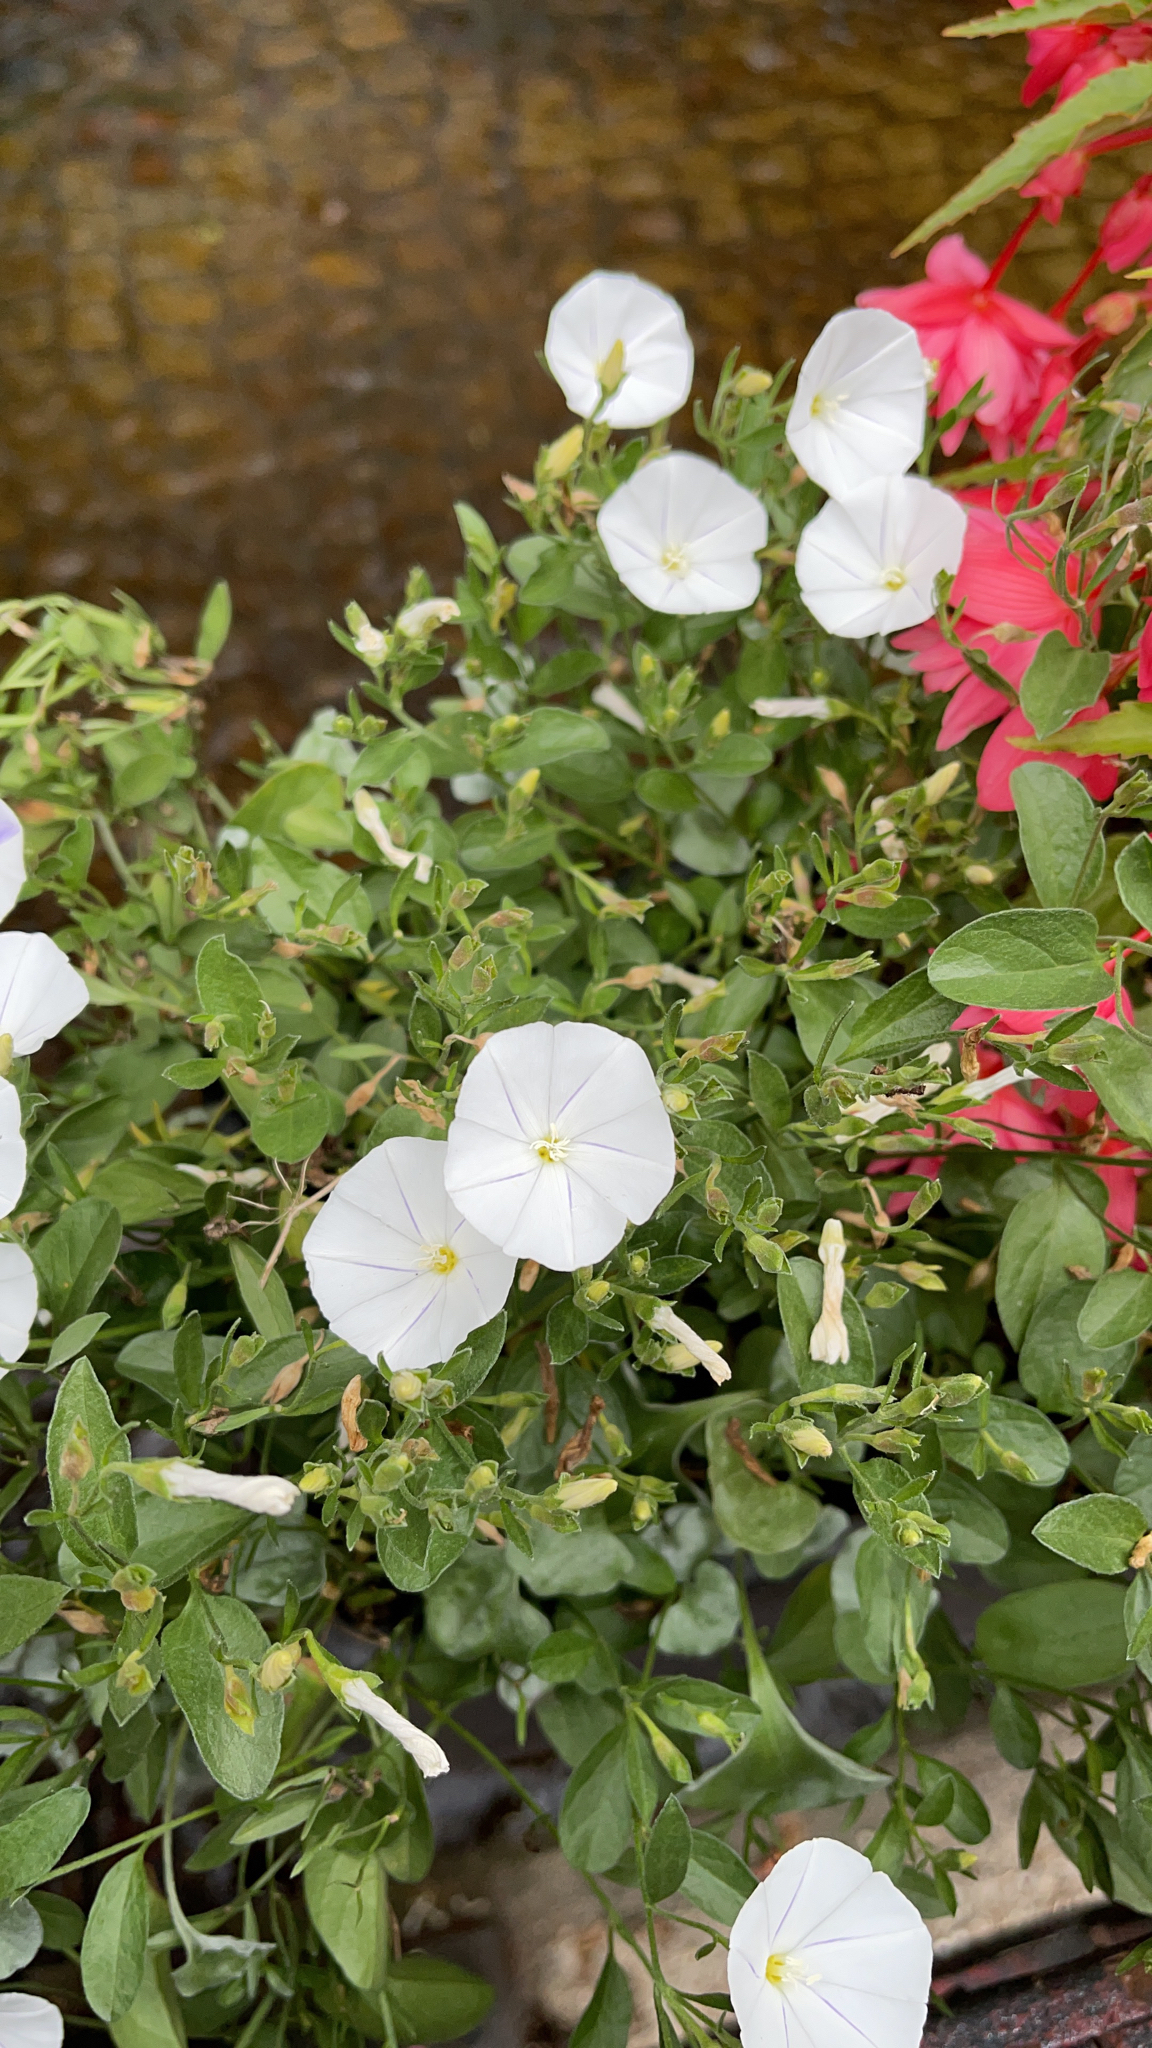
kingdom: Plantae
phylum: Tracheophyta
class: Magnoliopsida
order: Solanales
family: Convolvulaceae
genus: Convolvulus
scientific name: Convolvulus arvensis
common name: Field bindweed
